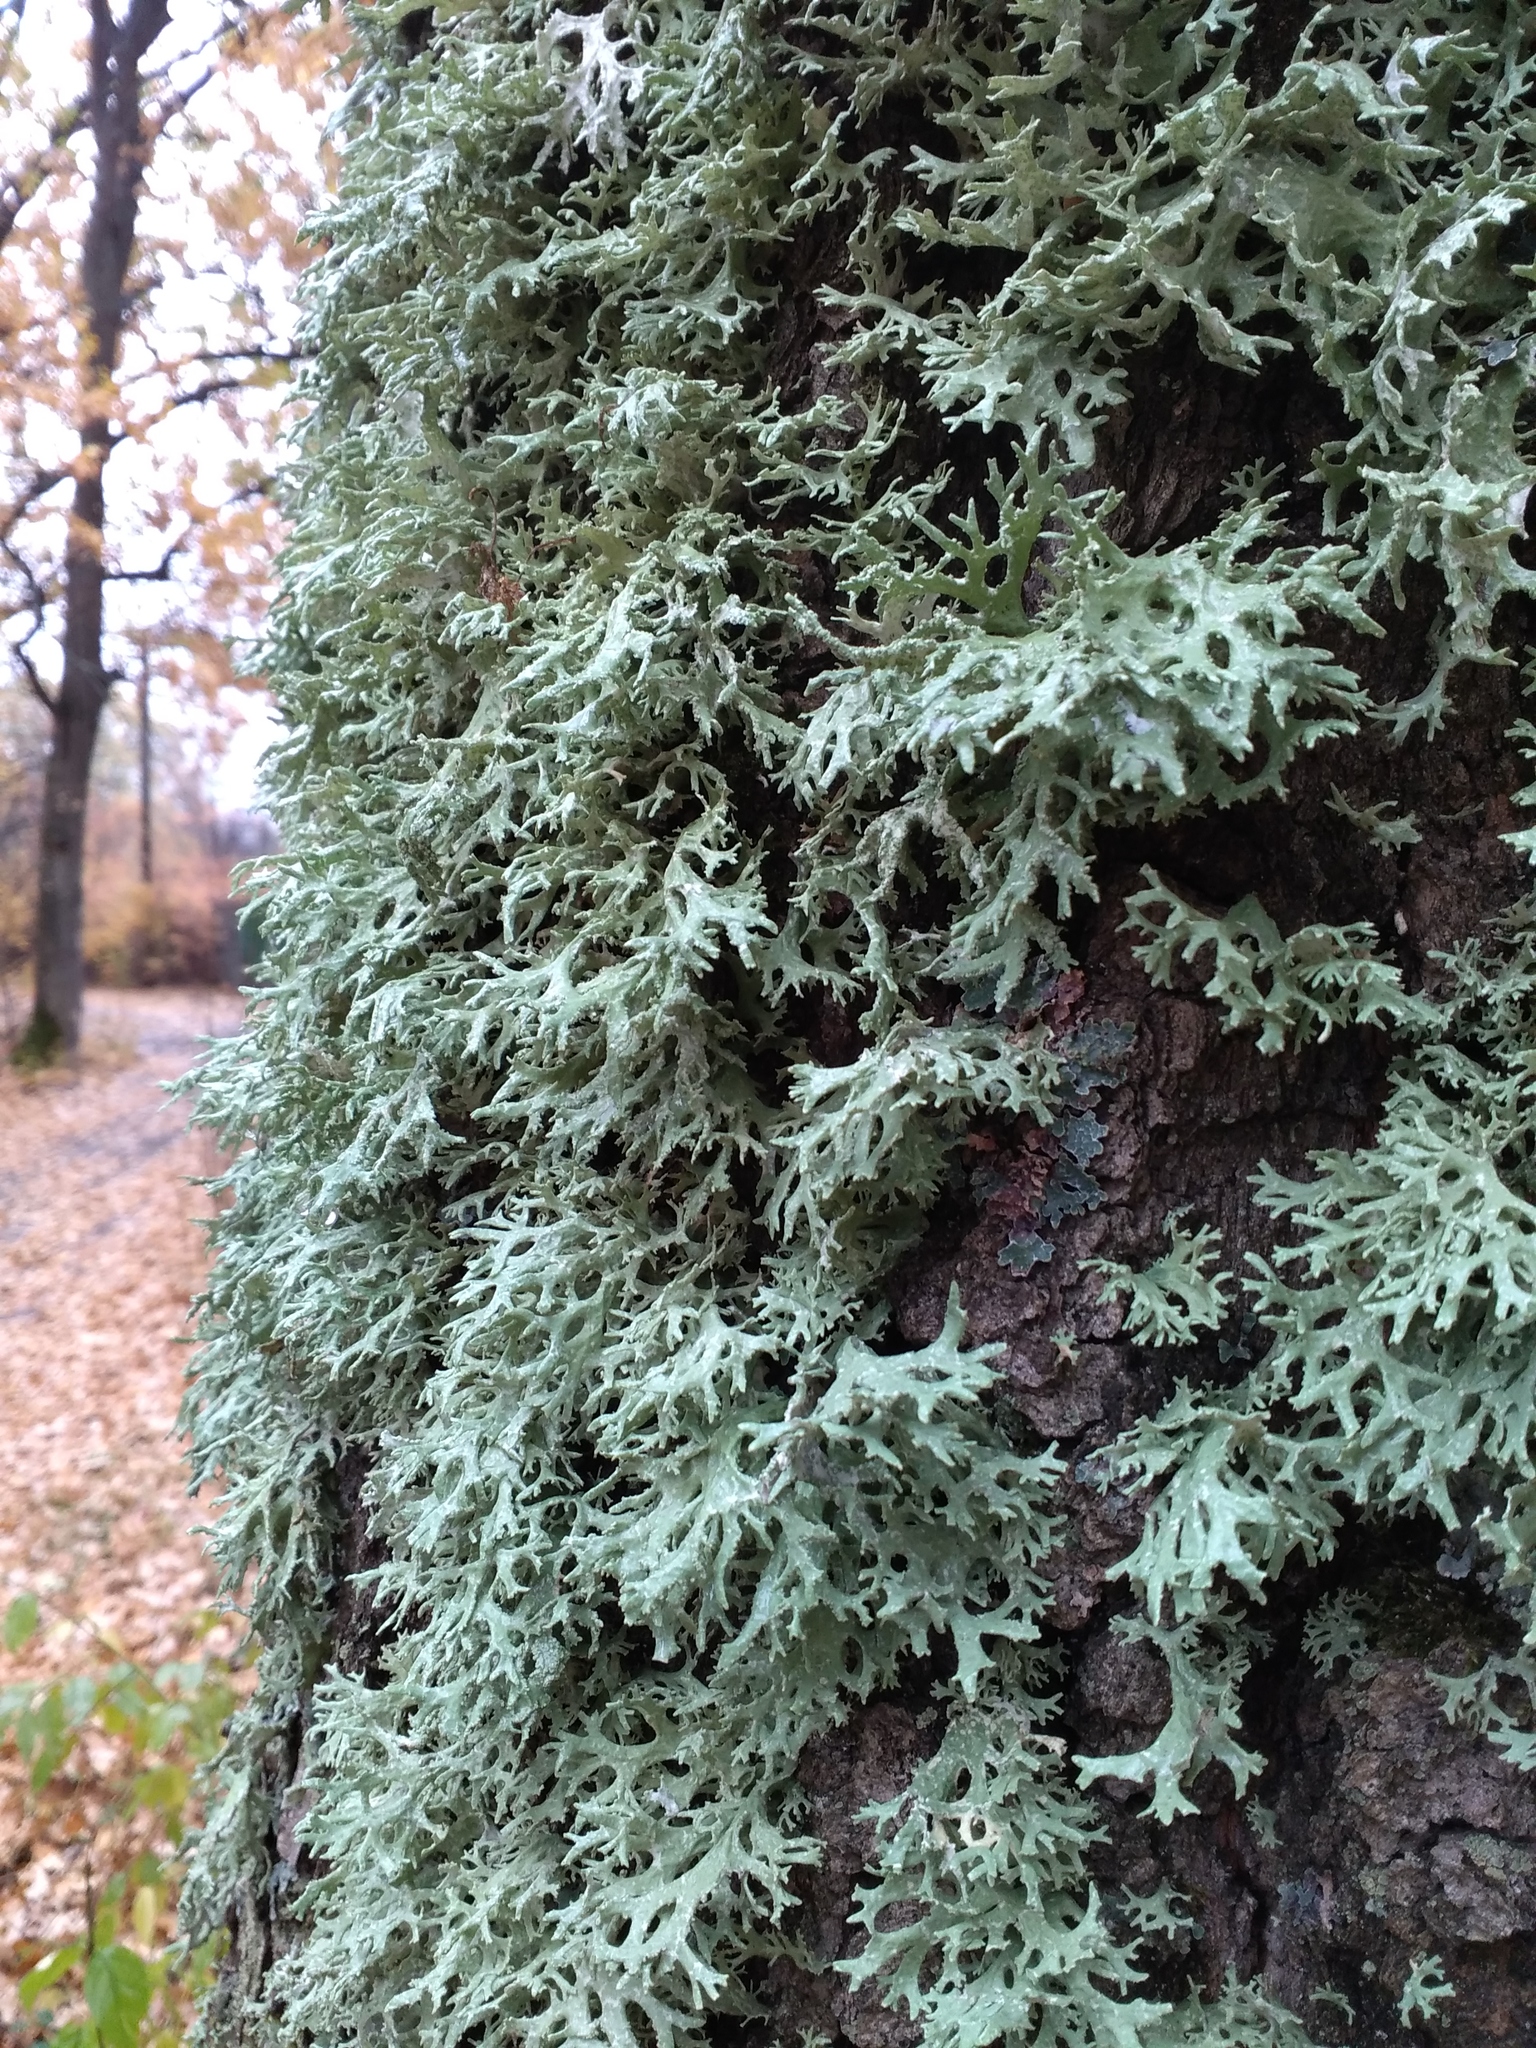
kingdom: Fungi
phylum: Ascomycota
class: Lecanoromycetes
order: Lecanorales
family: Parmeliaceae
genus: Evernia
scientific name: Evernia prunastri
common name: Oak moss
